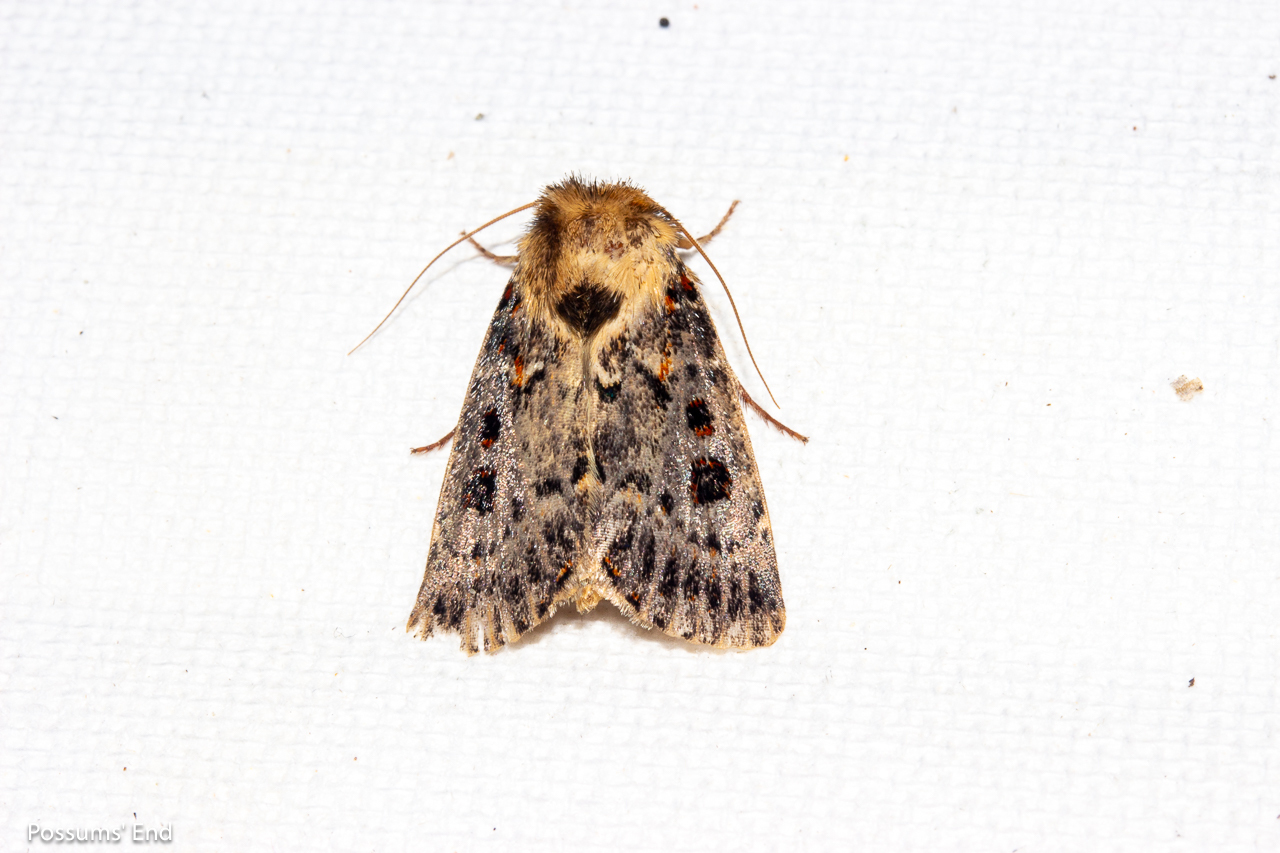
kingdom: Animalia
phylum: Arthropoda
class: Insecta
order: Lepidoptera
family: Noctuidae
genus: Proteuxoa
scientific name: Proteuxoa sanguinipuncta
